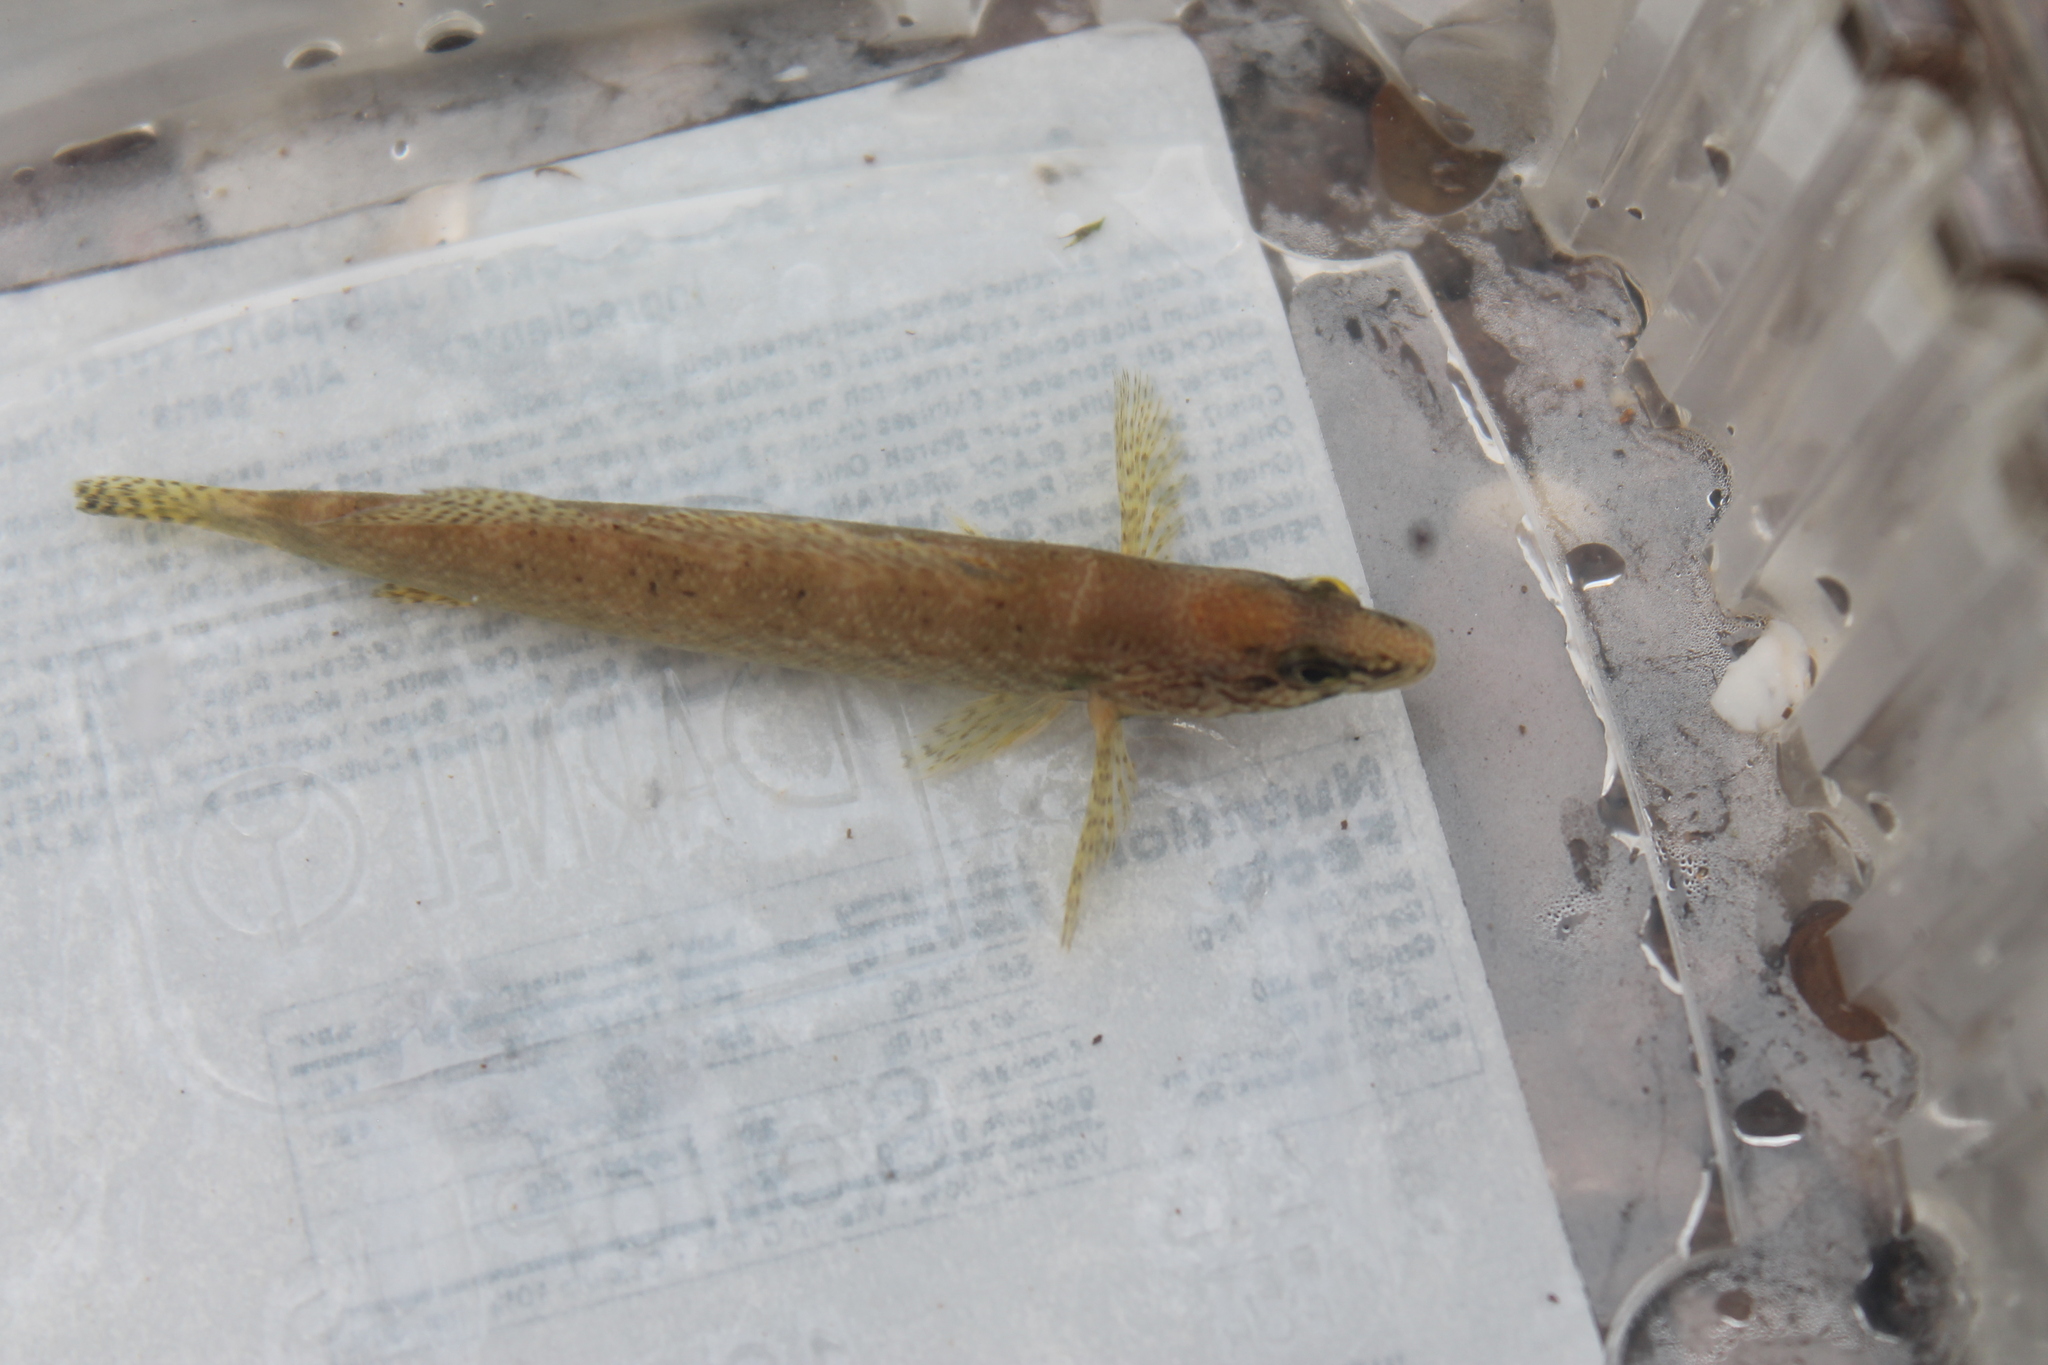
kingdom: Animalia
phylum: Chordata
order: Perciformes
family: Percidae
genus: Nothonotus
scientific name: Nothonotus aquali
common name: Coppercheek darter
